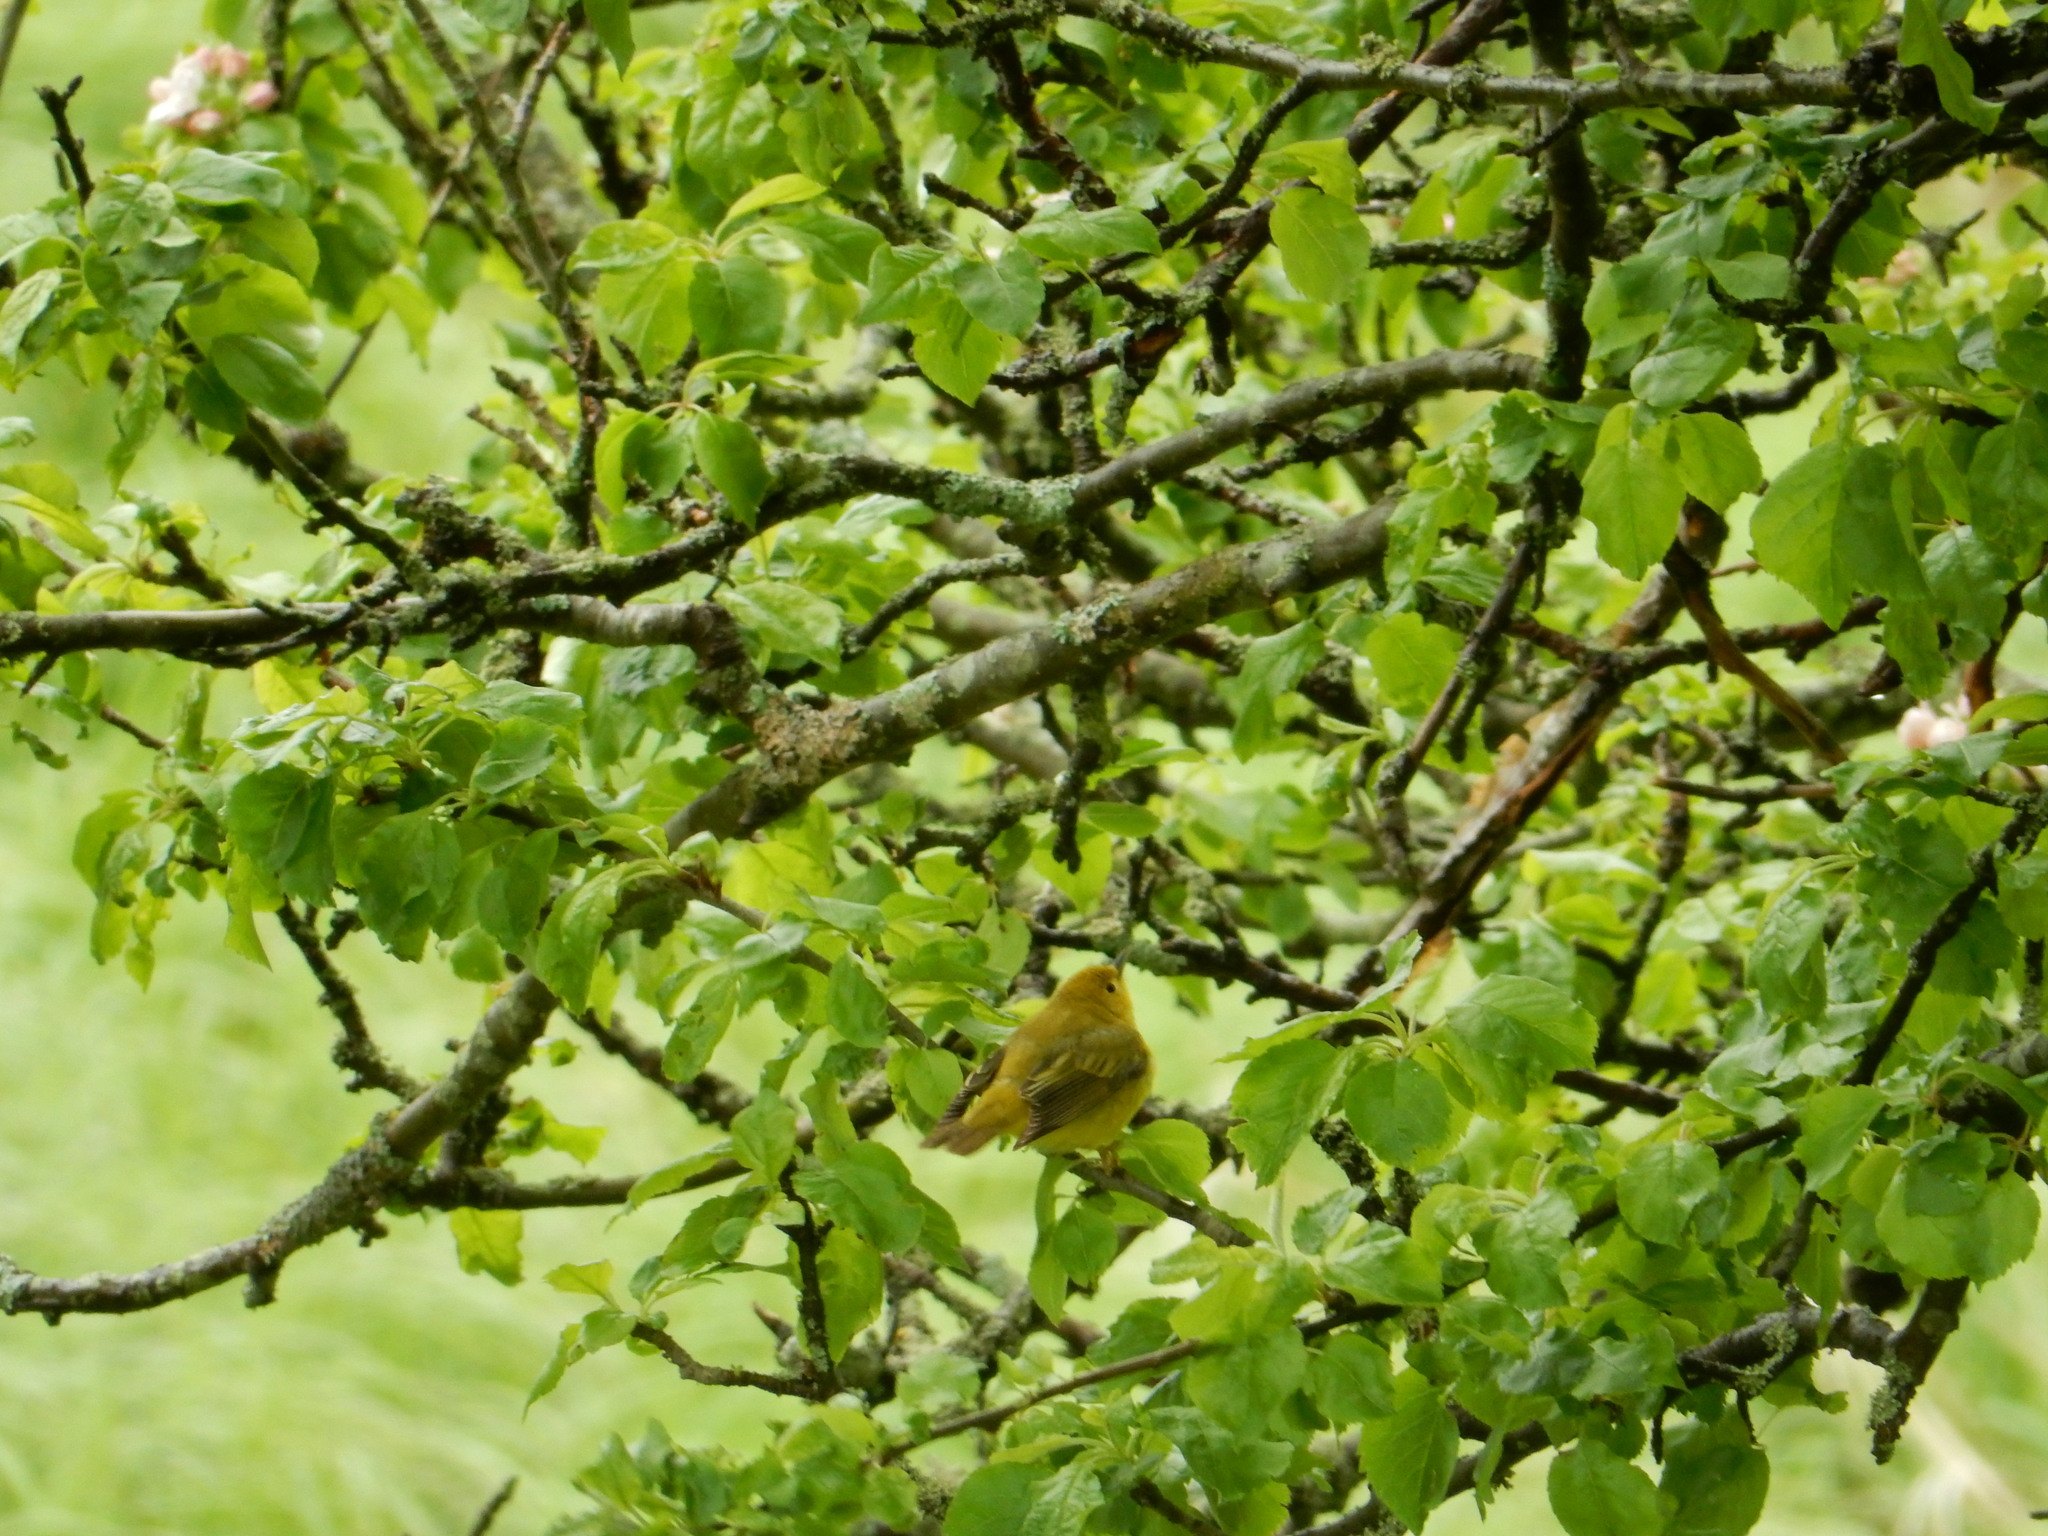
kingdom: Animalia
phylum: Chordata
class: Aves
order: Passeriformes
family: Parulidae
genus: Setophaga
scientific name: Setophaga petechia
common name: Yellow warbler
